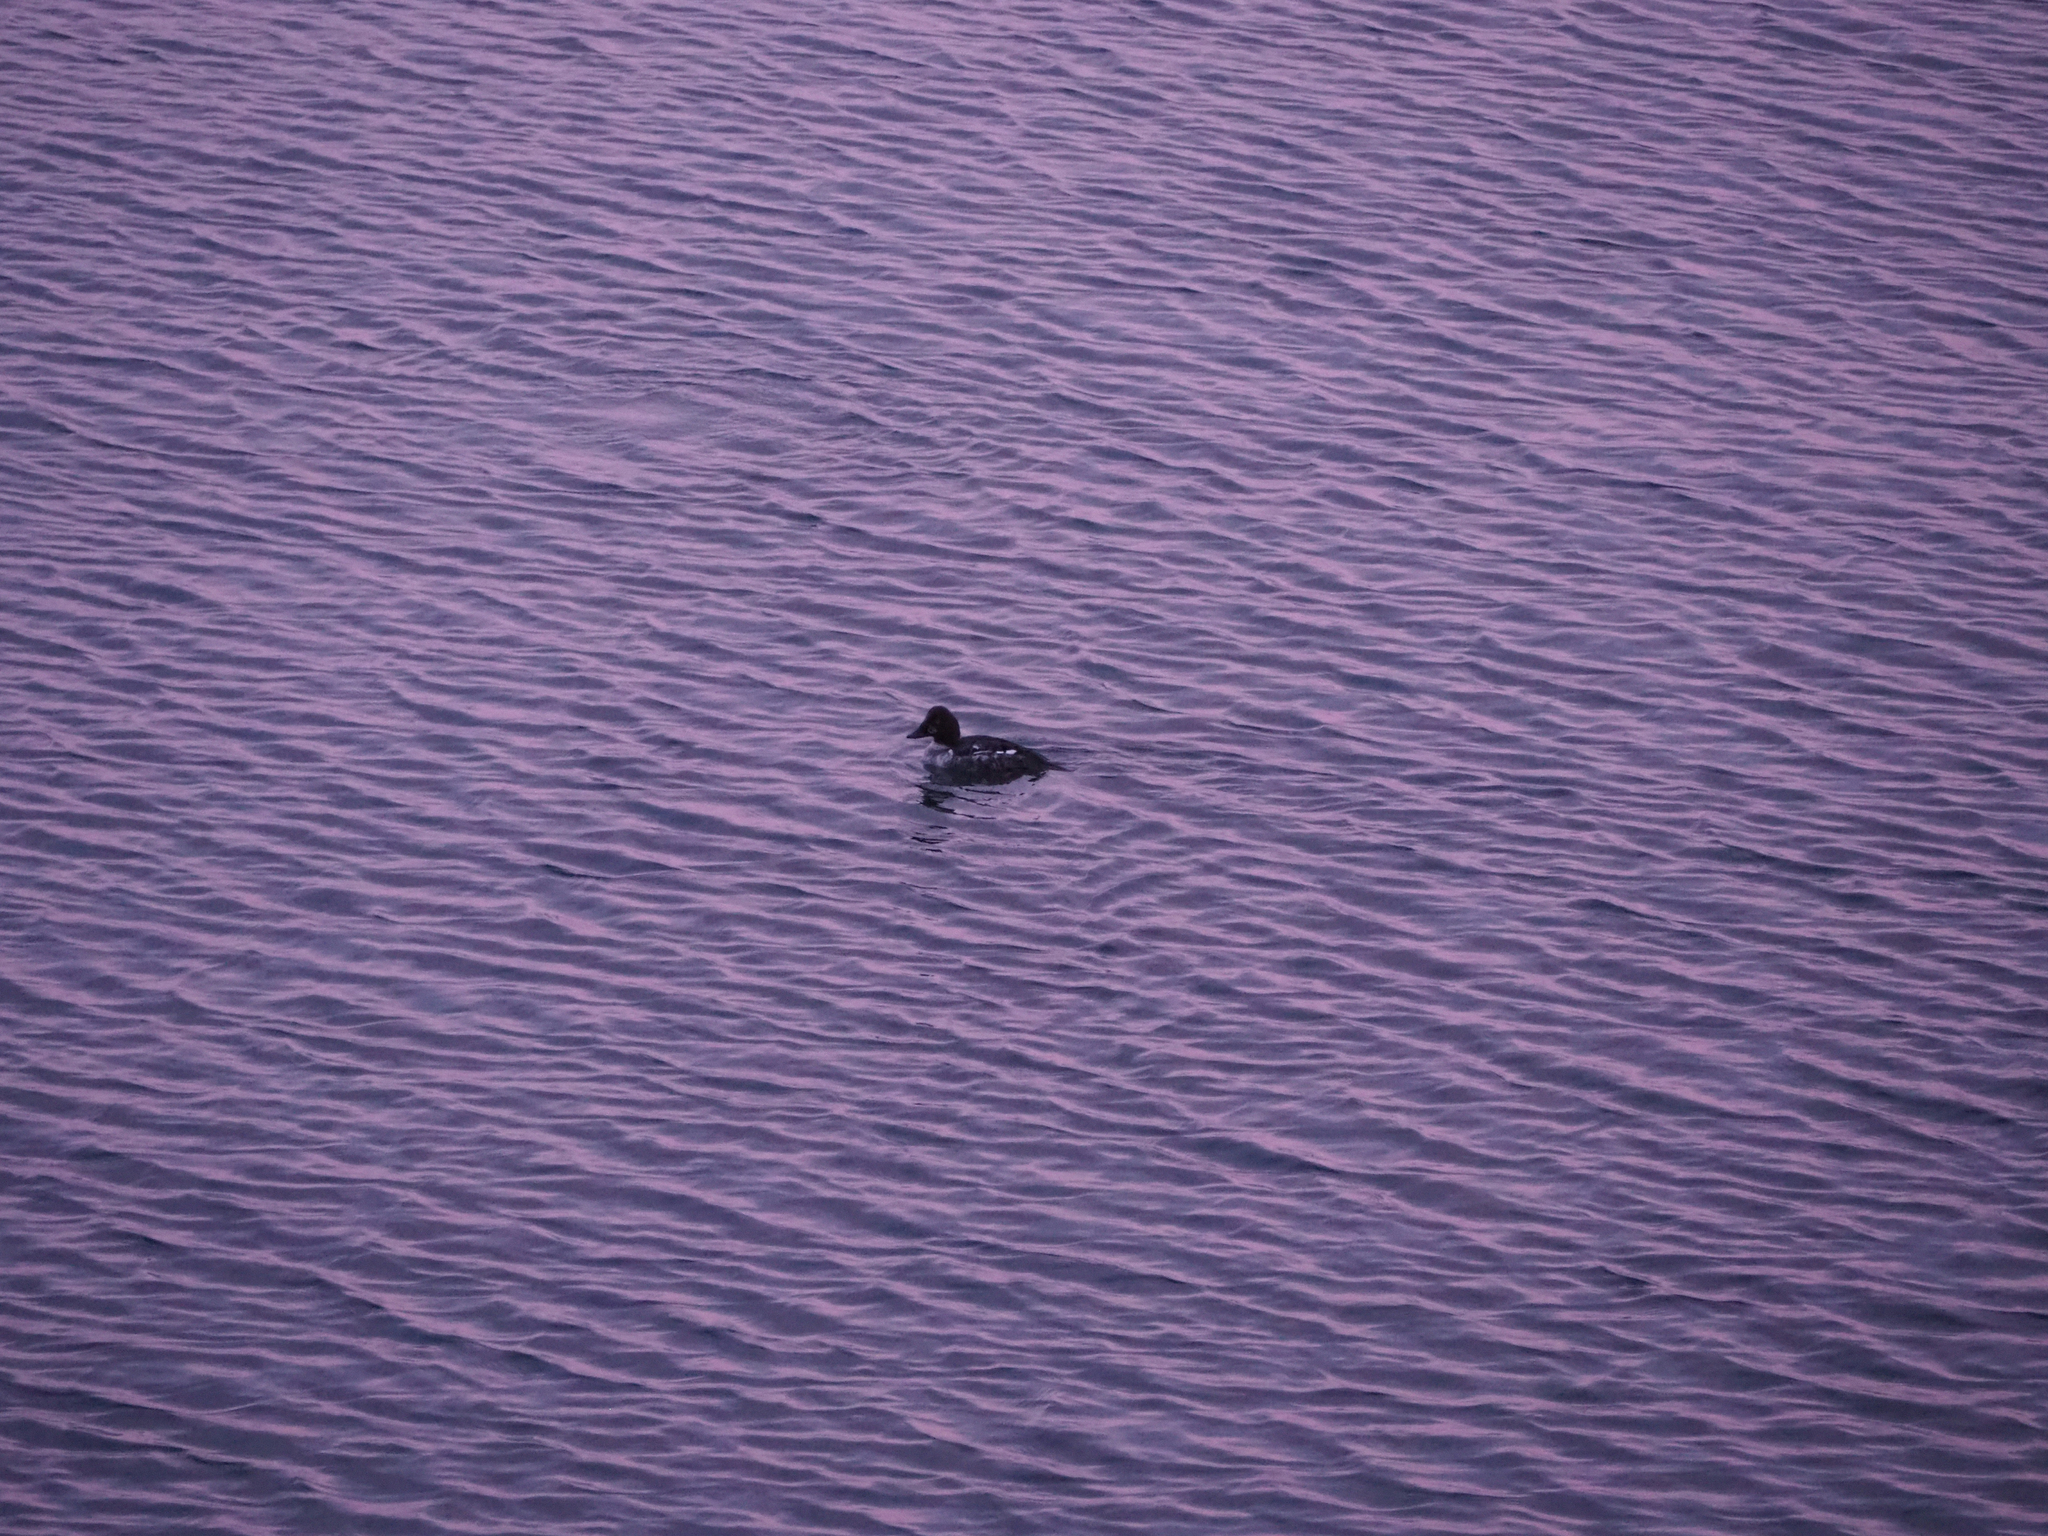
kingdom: Animalia
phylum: Chordata
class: Aves
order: Anseriformes
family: Anatidae
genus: Bucephala
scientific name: Bucephala clangula
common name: Common goldeneye
